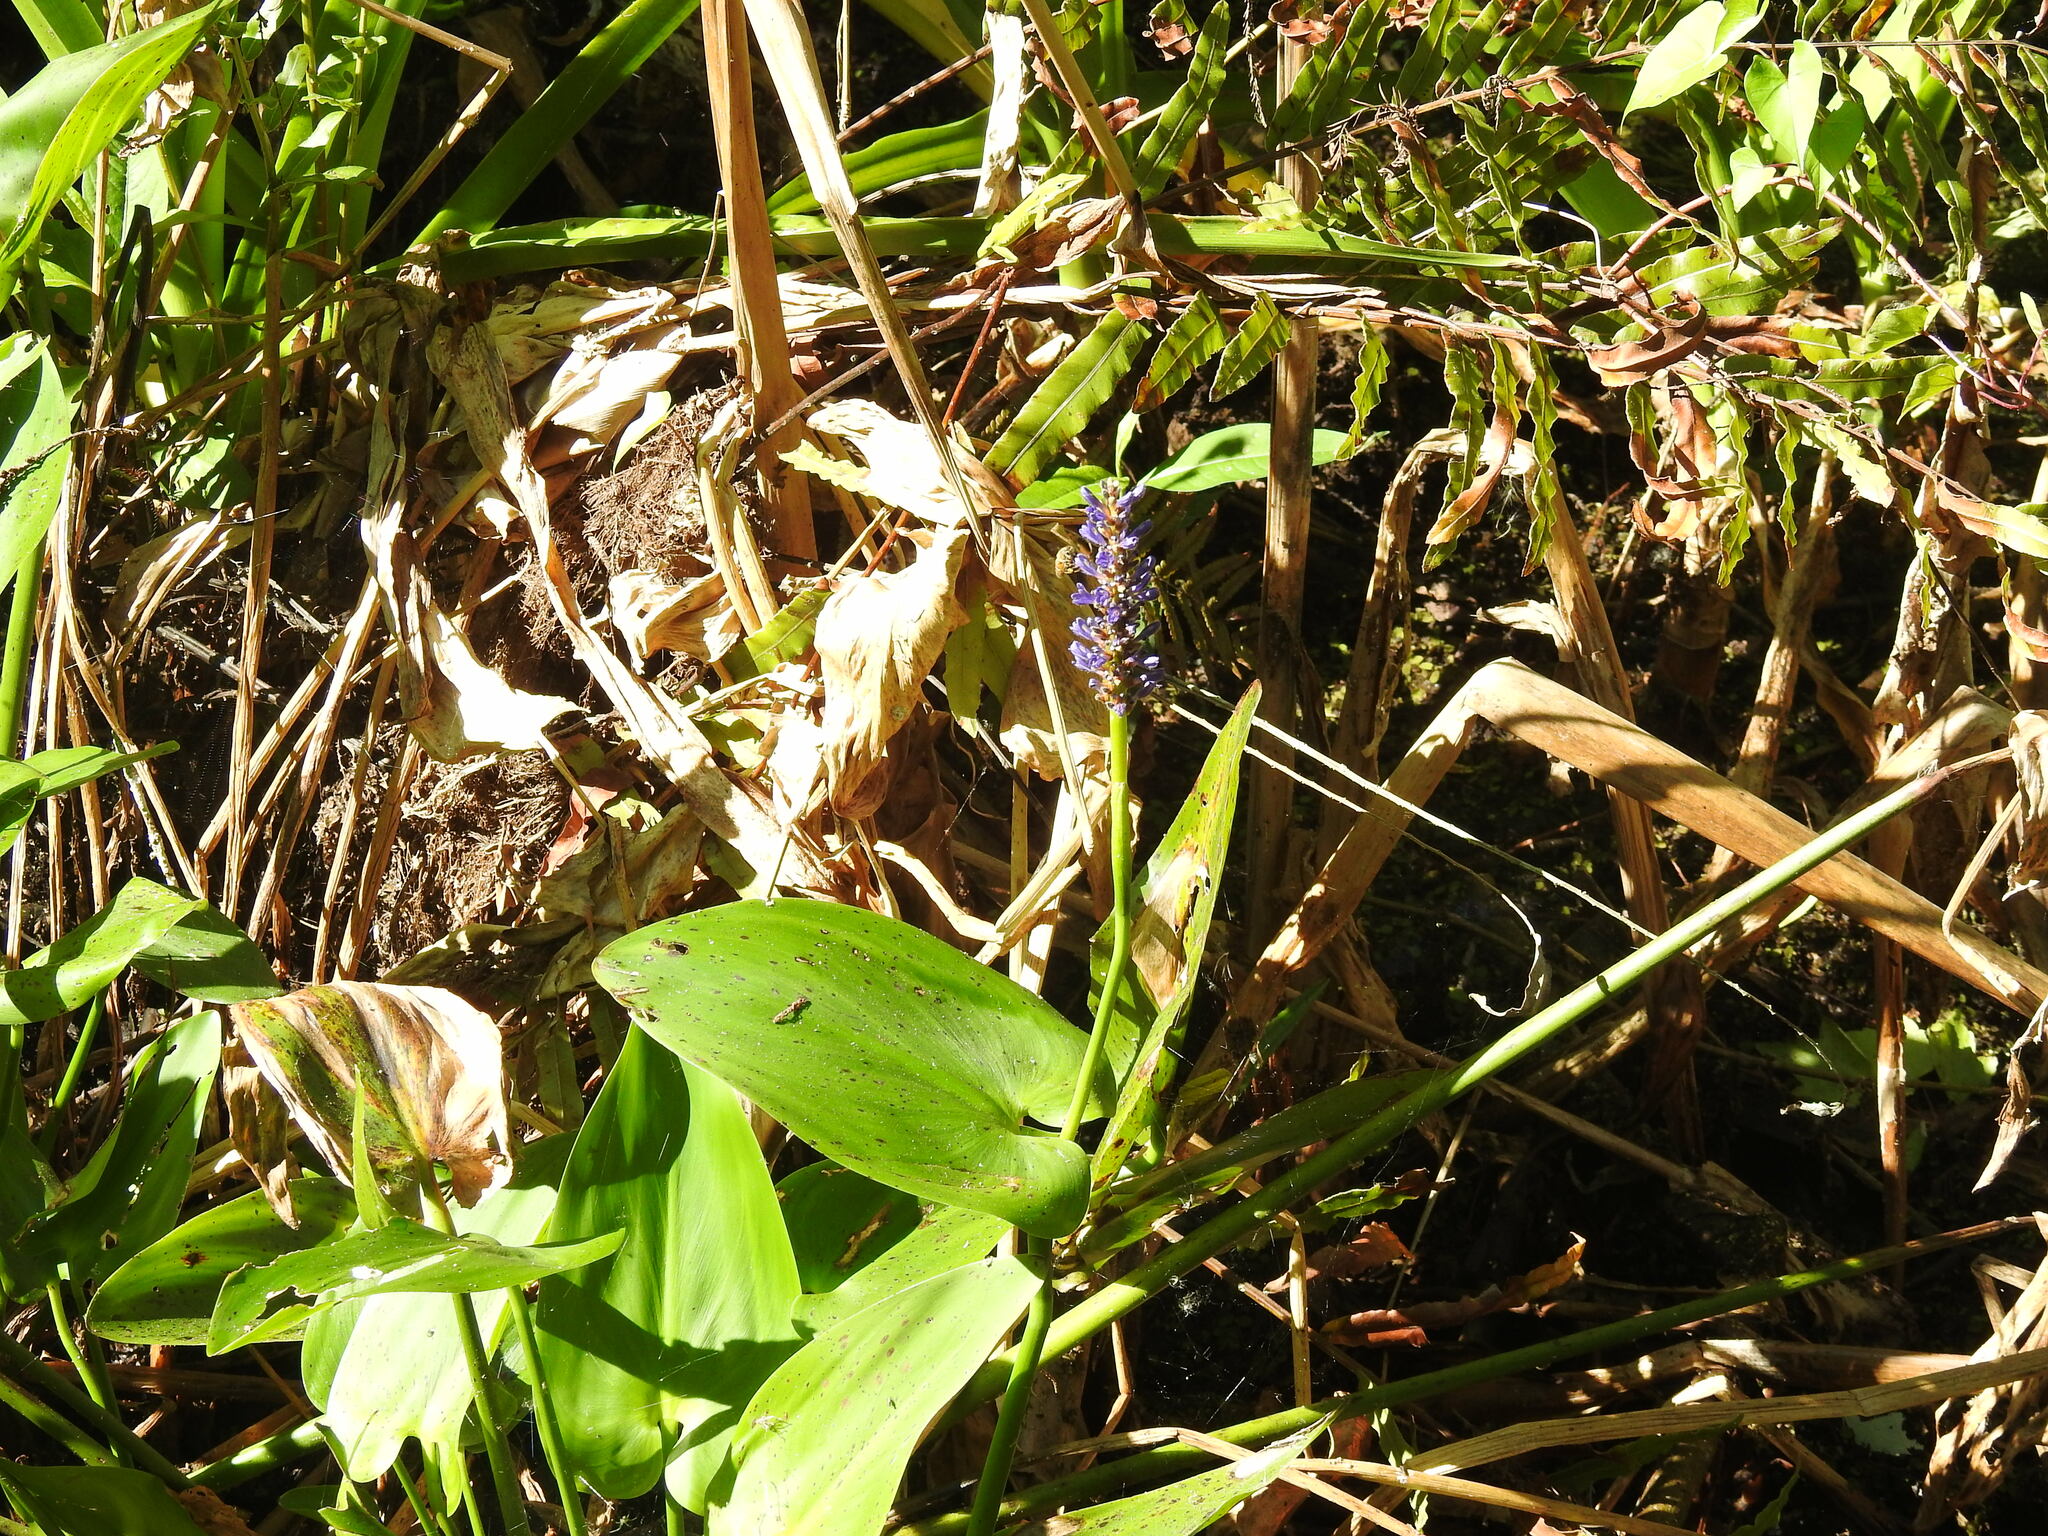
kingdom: Plantae
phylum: Tracheophyta
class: Liliopsida
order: Commelinales
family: Pontederiaceae
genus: Pontederia
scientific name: Pontederia cordata
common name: Pickerelweed
